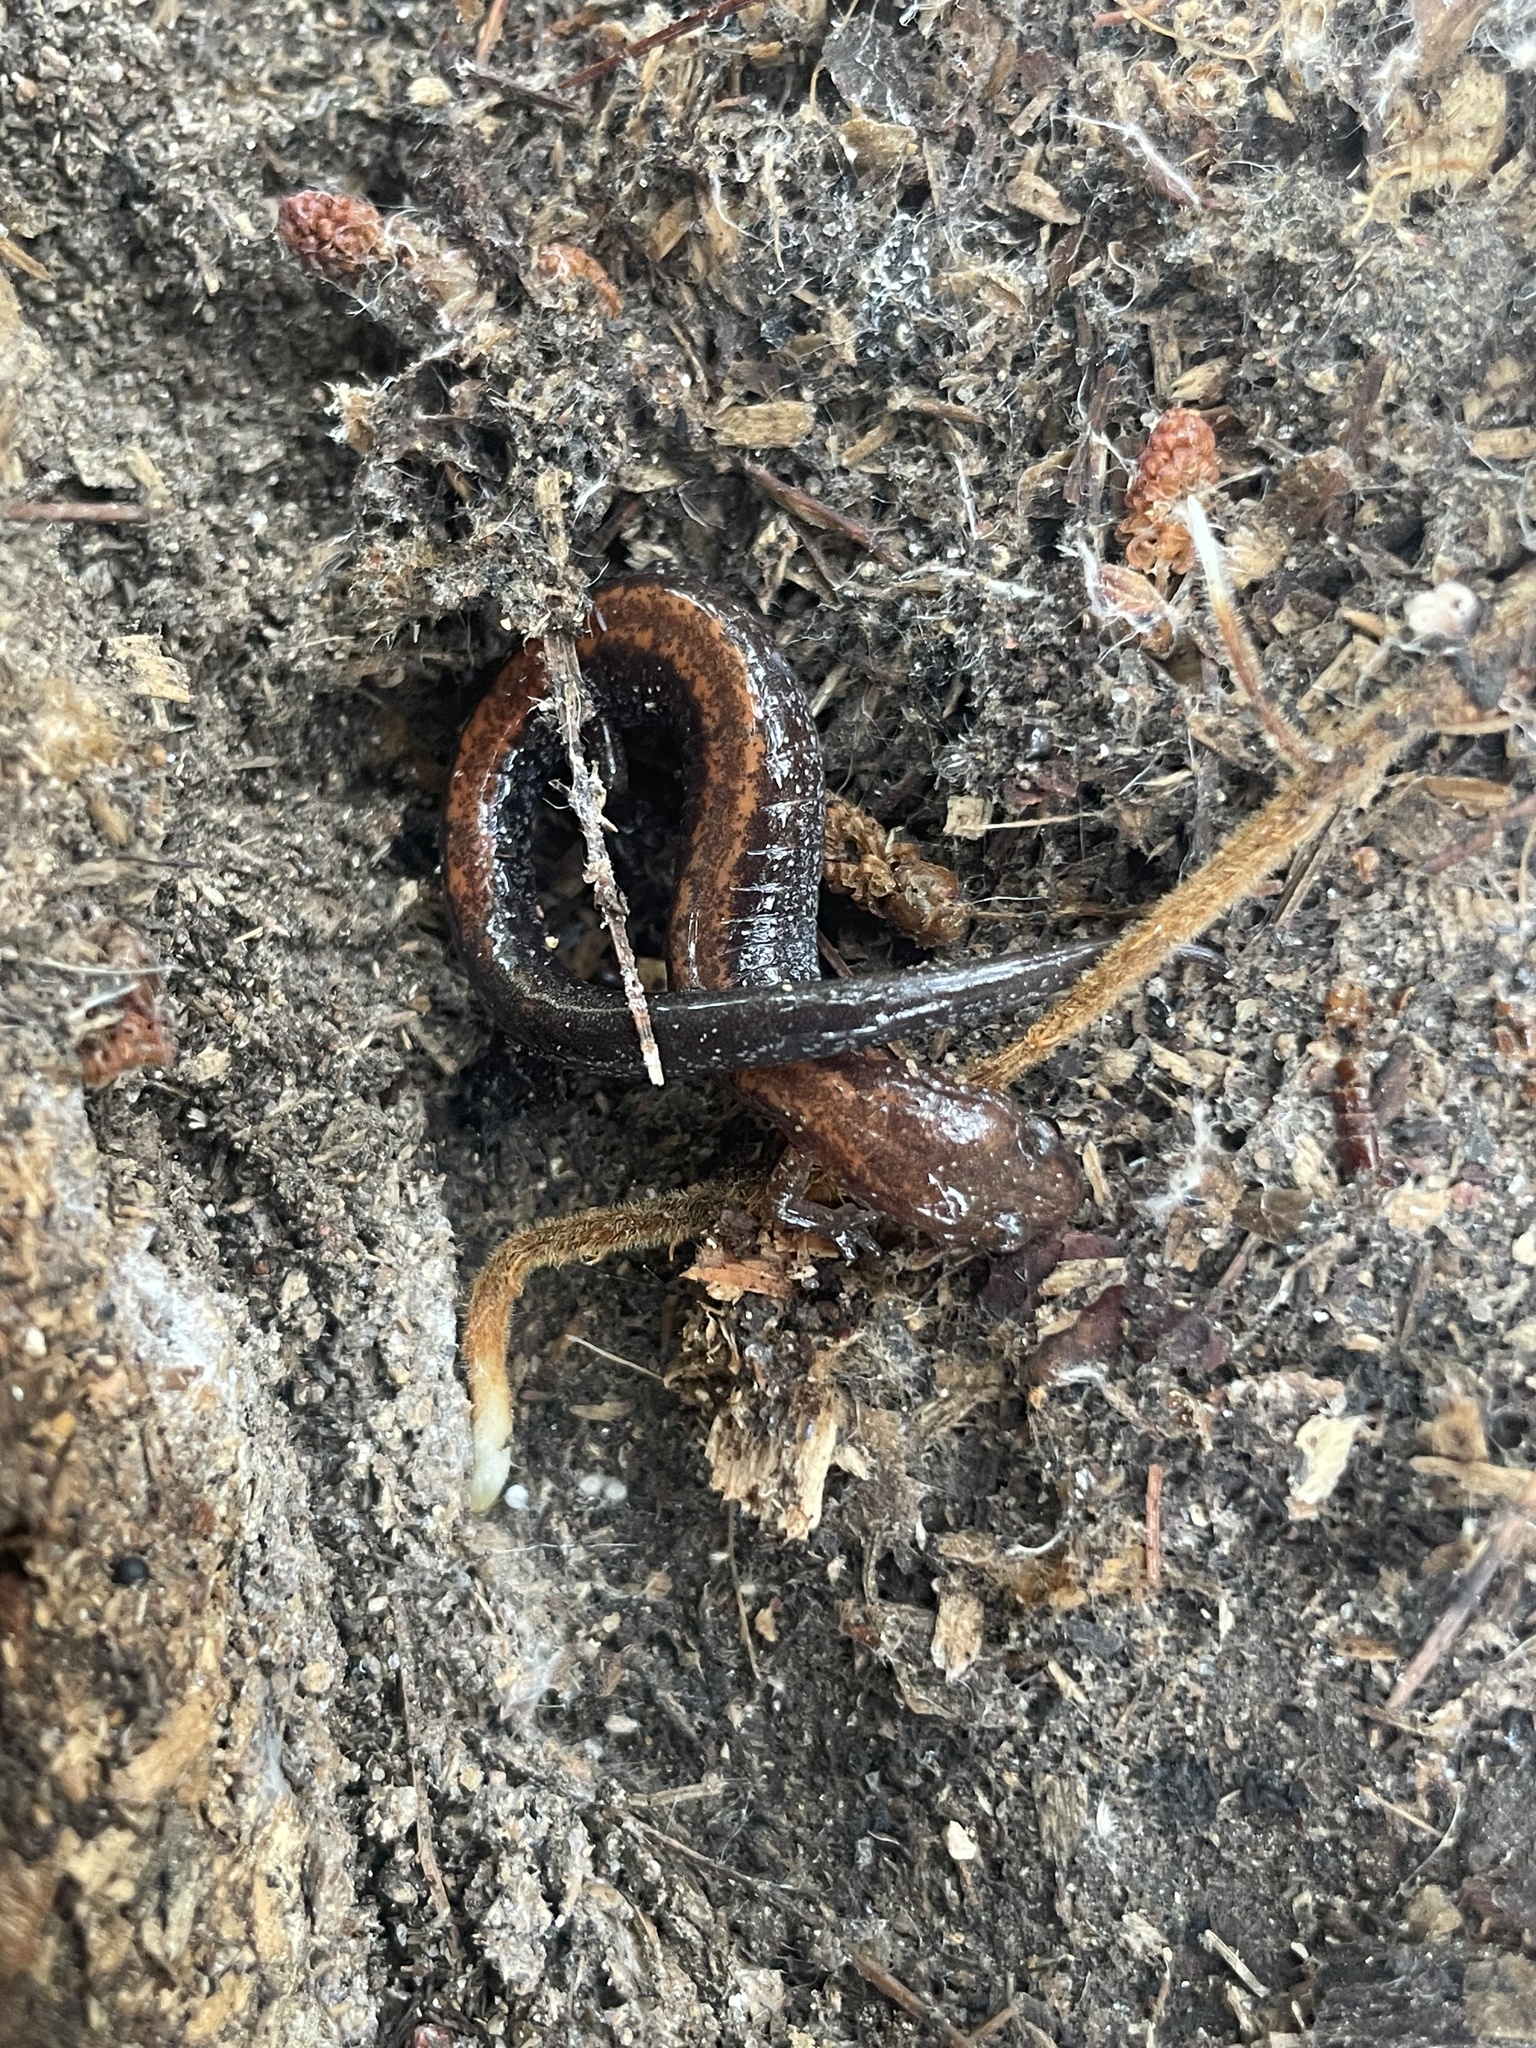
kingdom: Animalia
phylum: Chordata
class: Amphibia
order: Caudata
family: Plethodontidae
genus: Plethodon
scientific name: Plethodon cinereus
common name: Redback salamander
